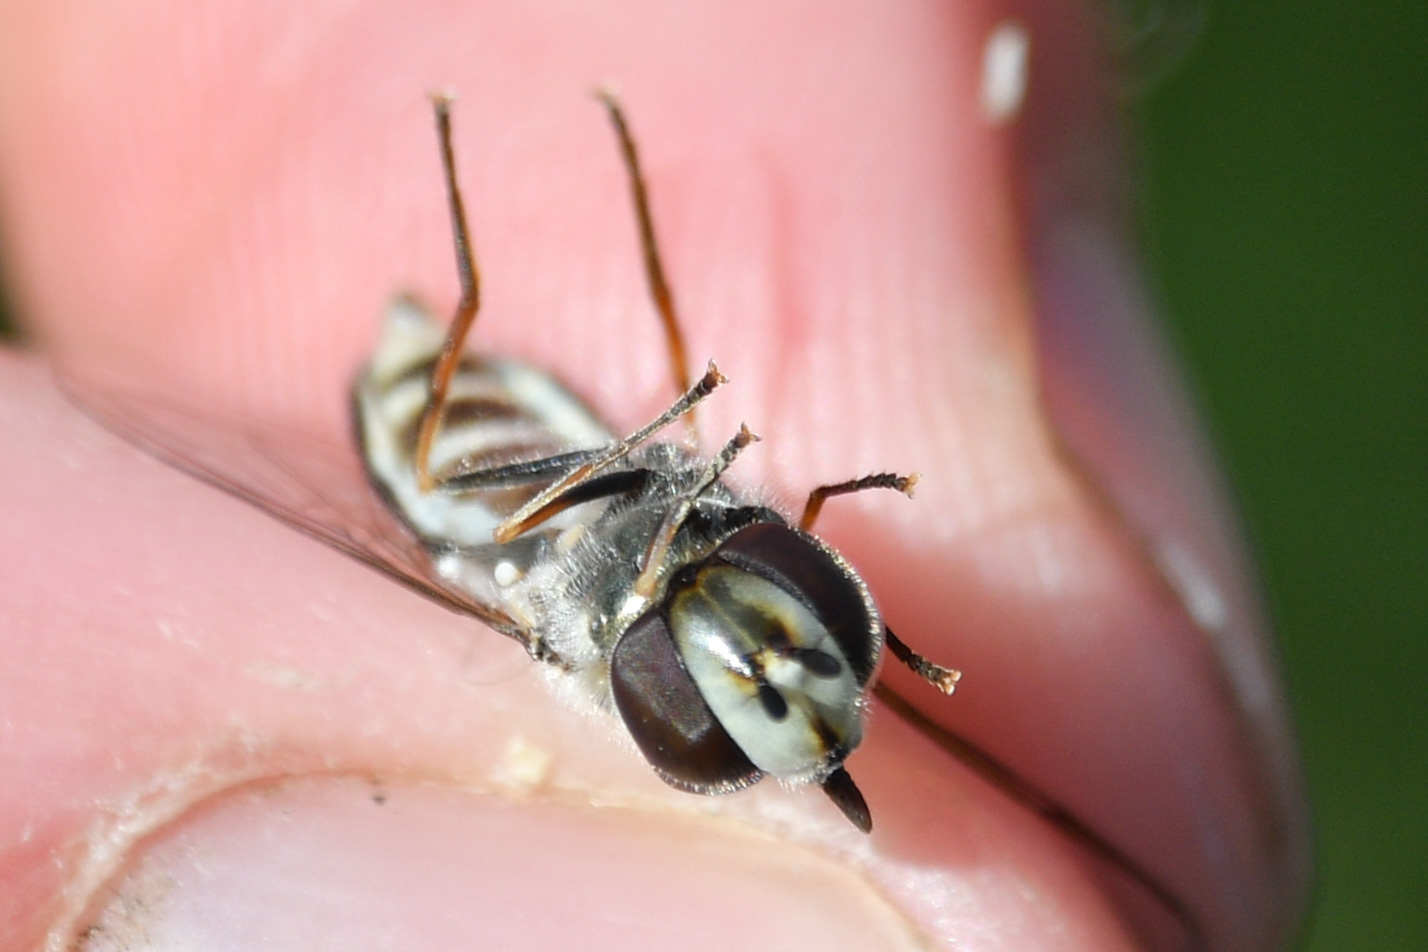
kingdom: Animalia
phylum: Arthropoda
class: Insecta
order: Diptera
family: Syrphidae
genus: Scaeva
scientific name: Scaeva affinis
